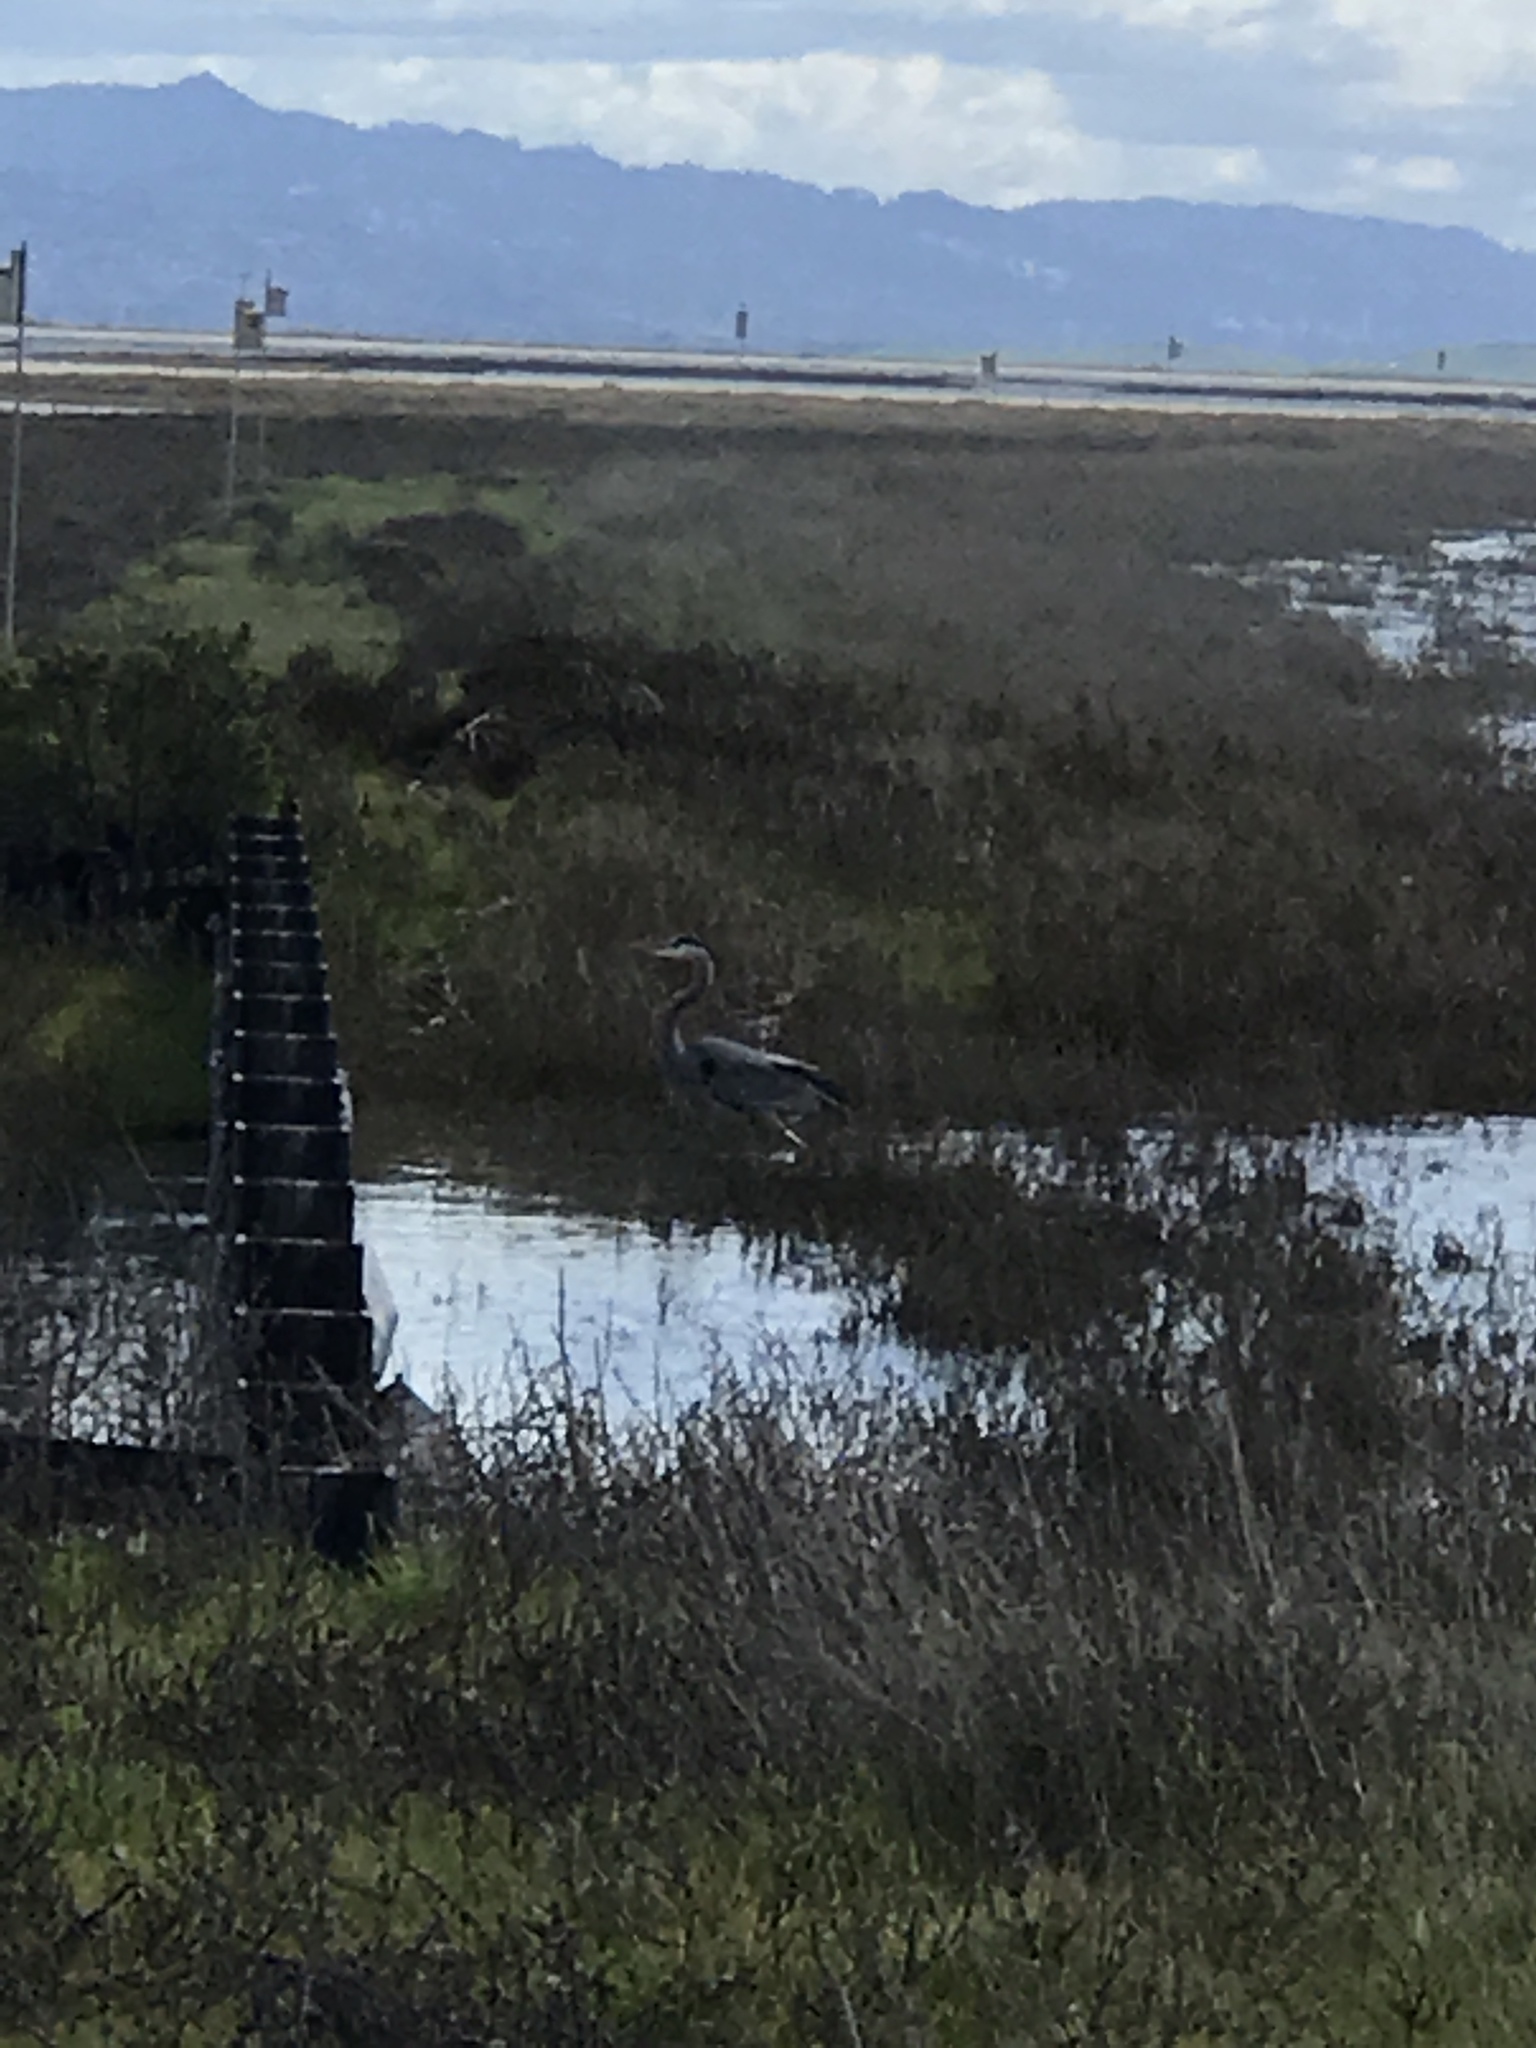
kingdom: Animalia
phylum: Chordata
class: Aves
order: Pelecaniformes
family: Ardeidae
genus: Ardea
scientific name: Ardea herodias
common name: Great blue heron
